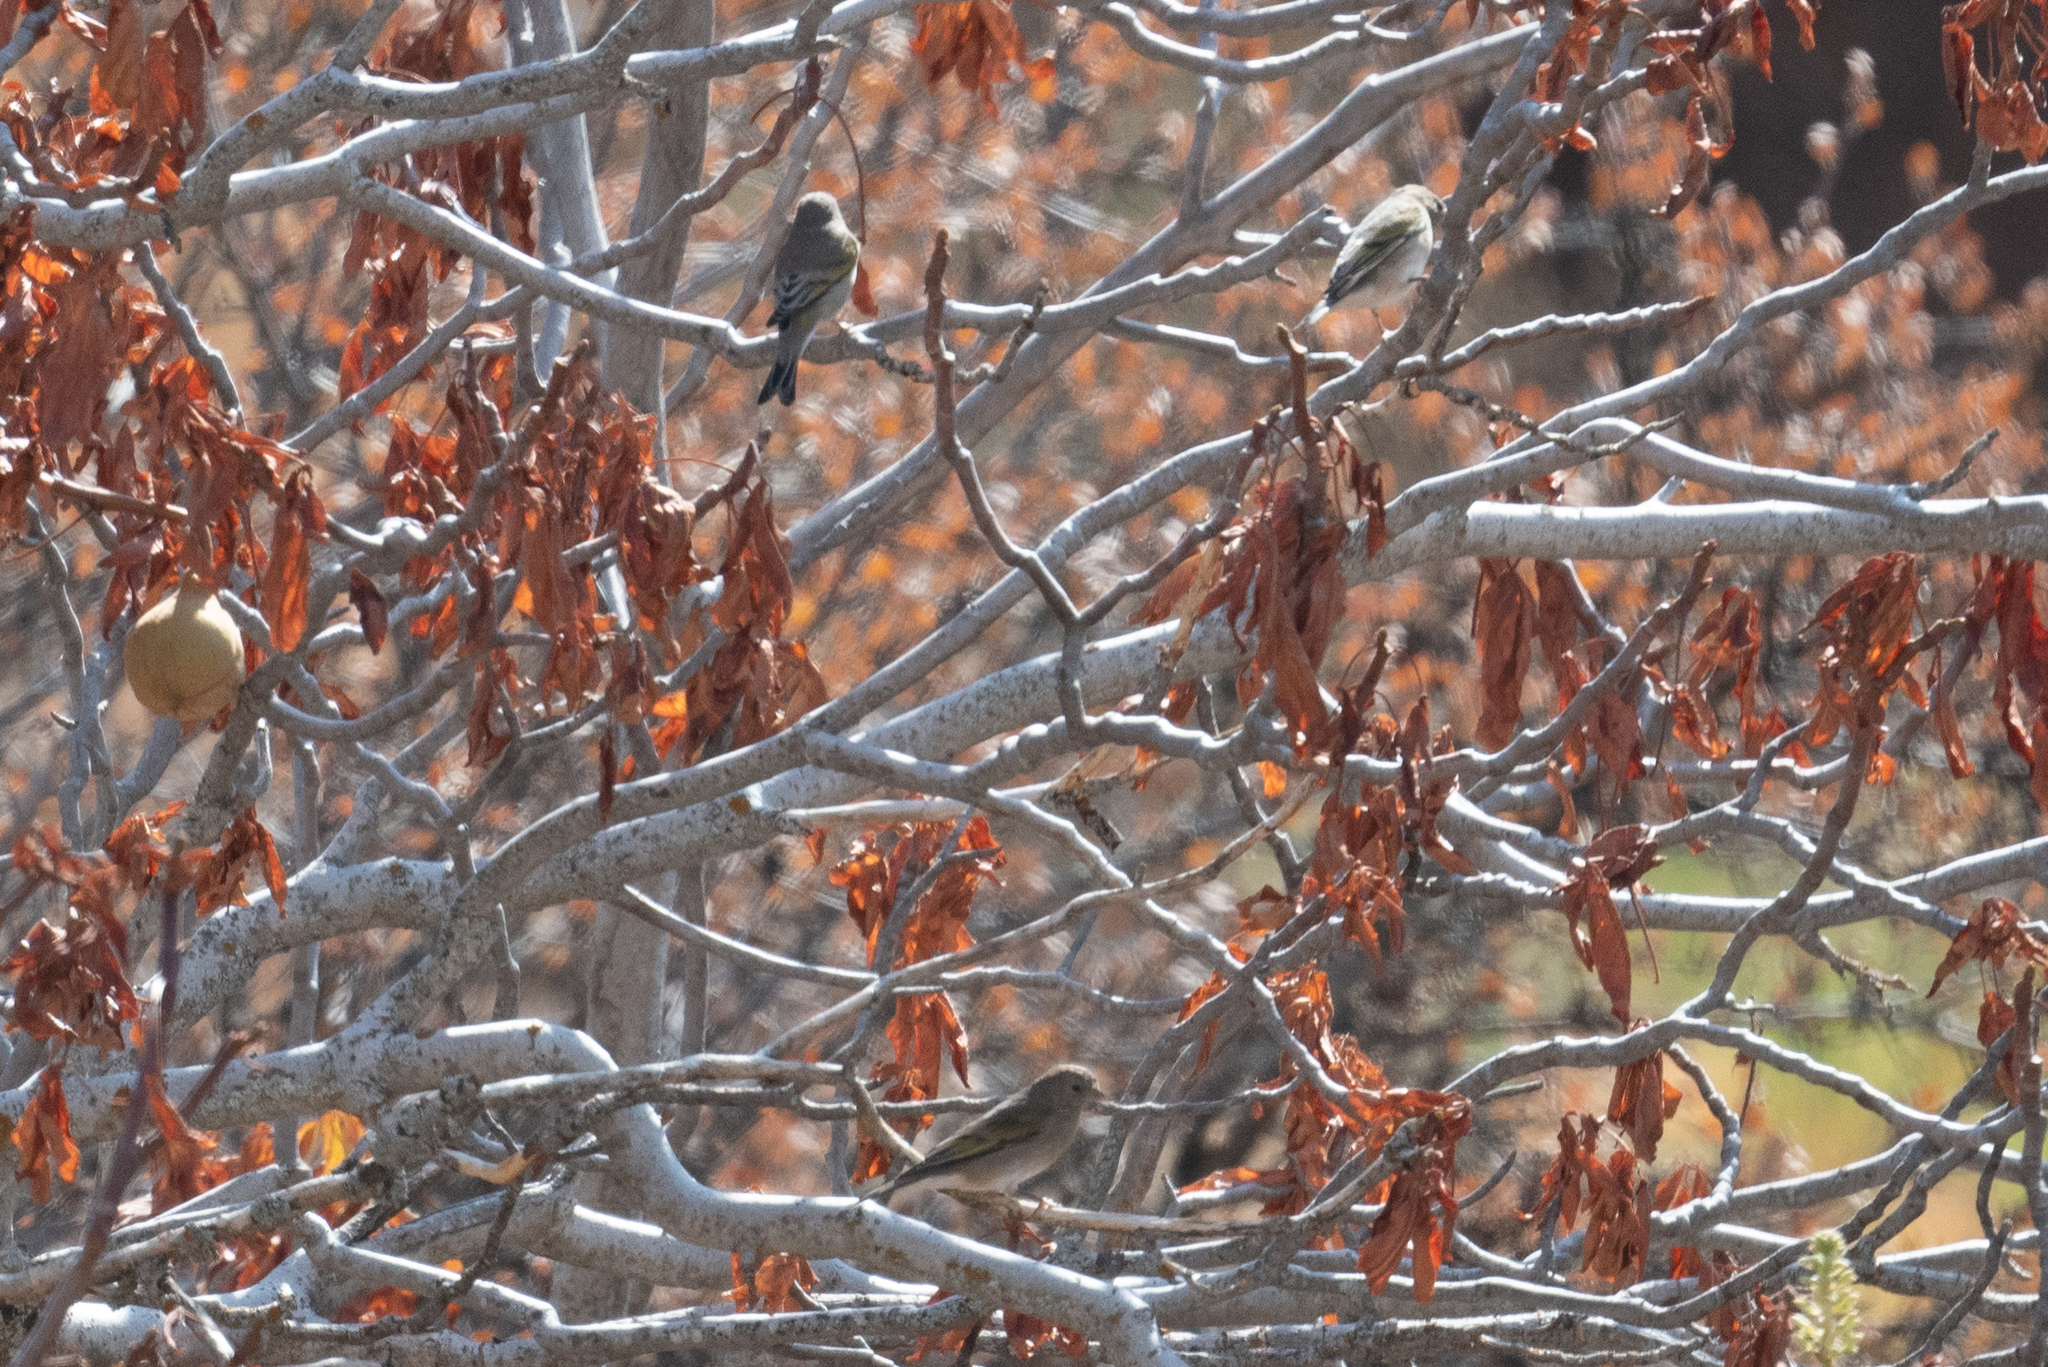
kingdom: Animalia
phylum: Chordata
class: Aves
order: Passeriformes
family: Fringillidae
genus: Spinus
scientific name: Spinus lawrencei
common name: Lawrence's goldfinch
